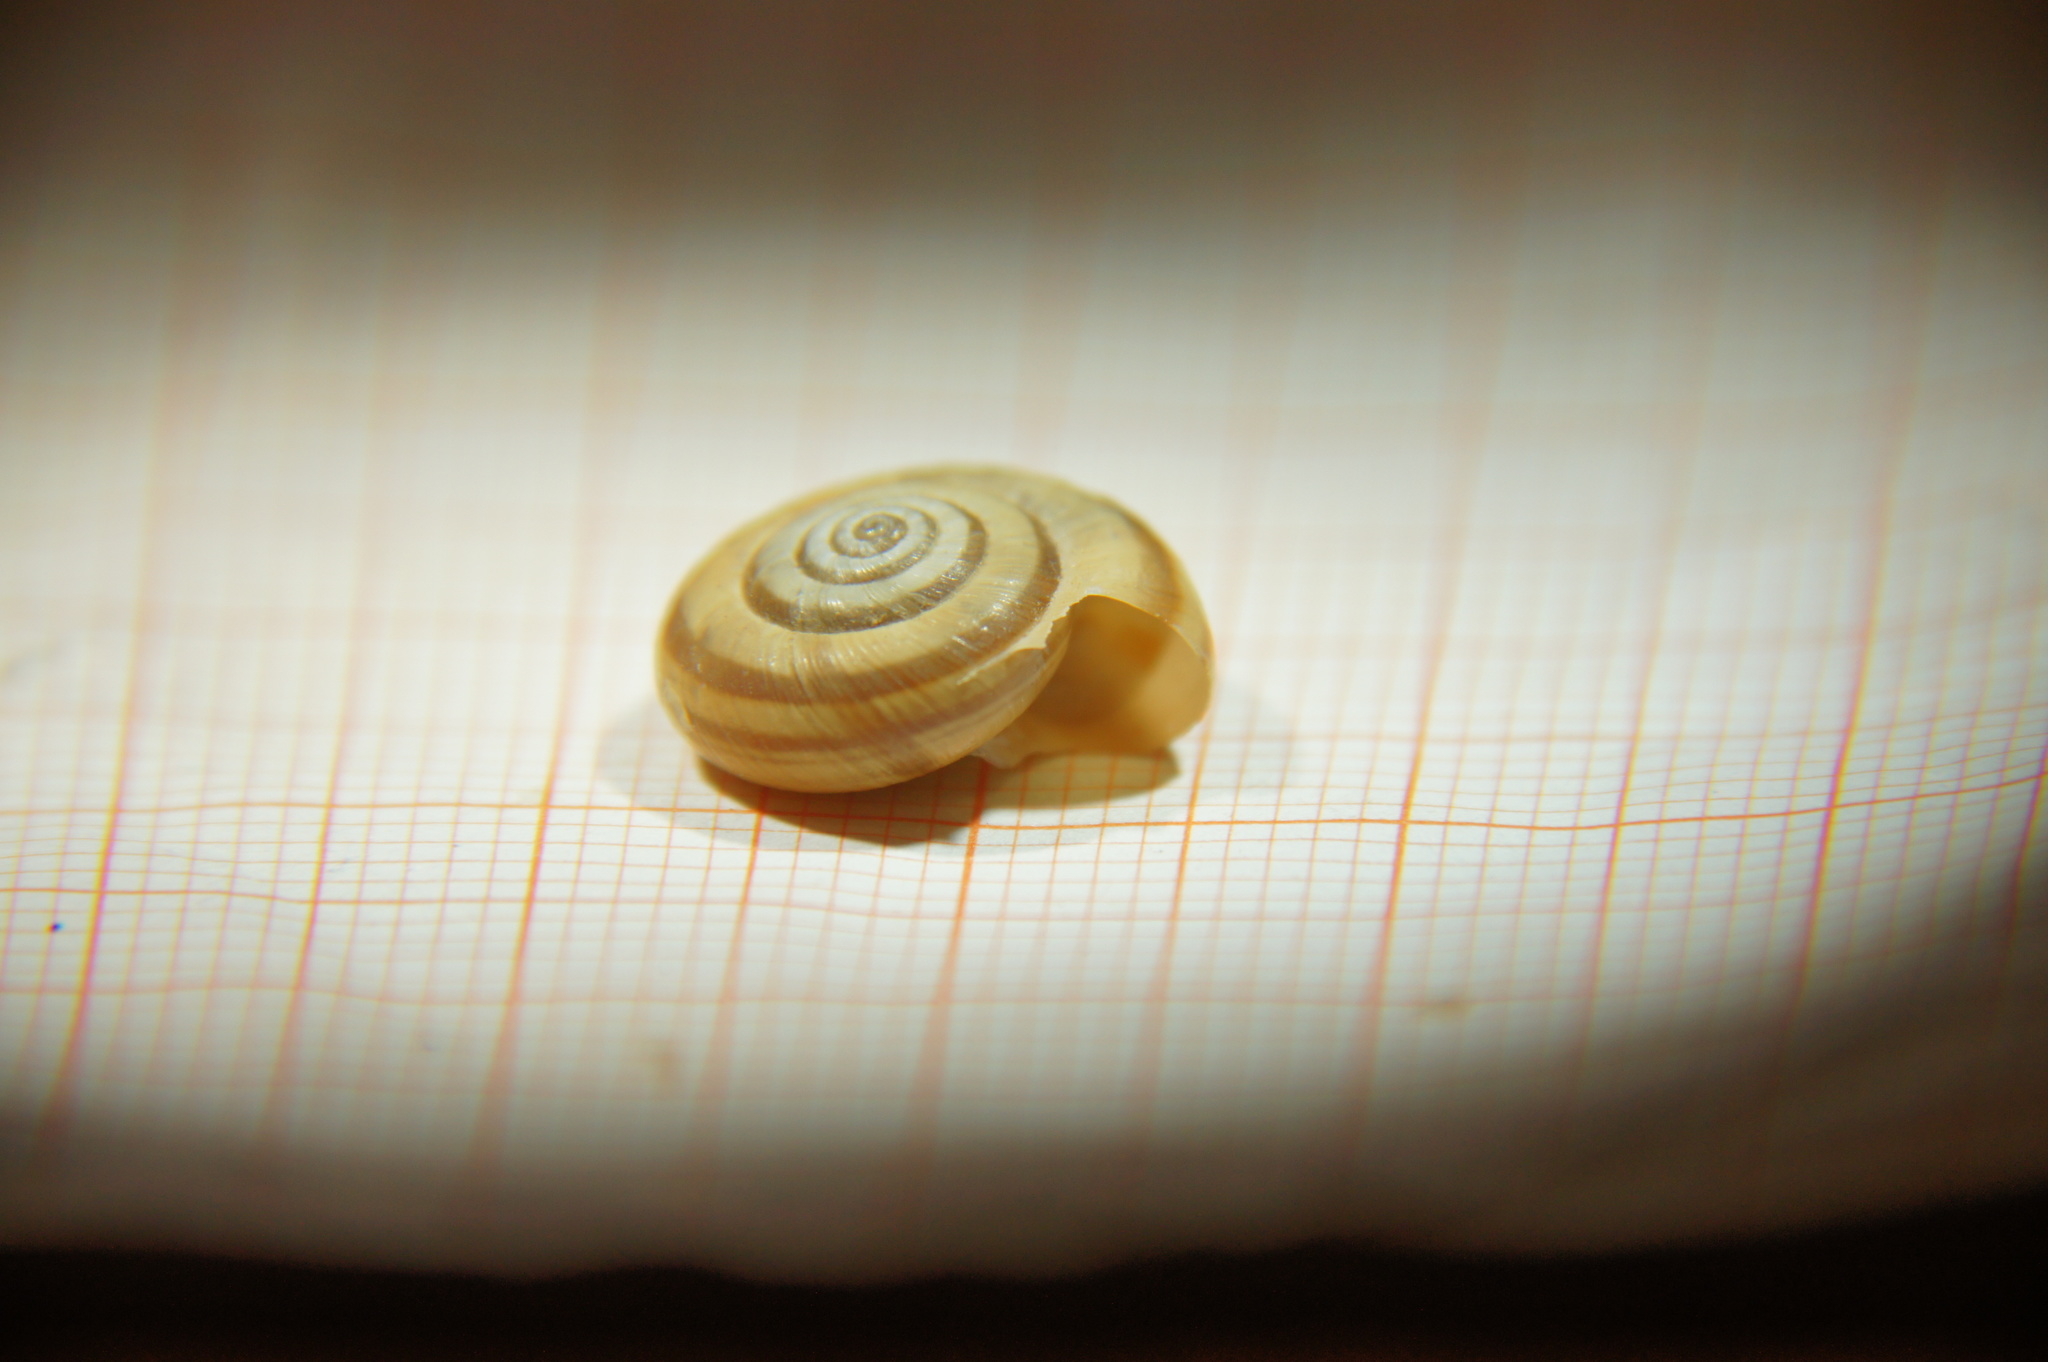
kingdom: Animalia
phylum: Mollusca
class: Gastropoda
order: Stylommatophora
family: Geomitridae
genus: Helicella
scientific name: Helicella itala
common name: Heath snail
